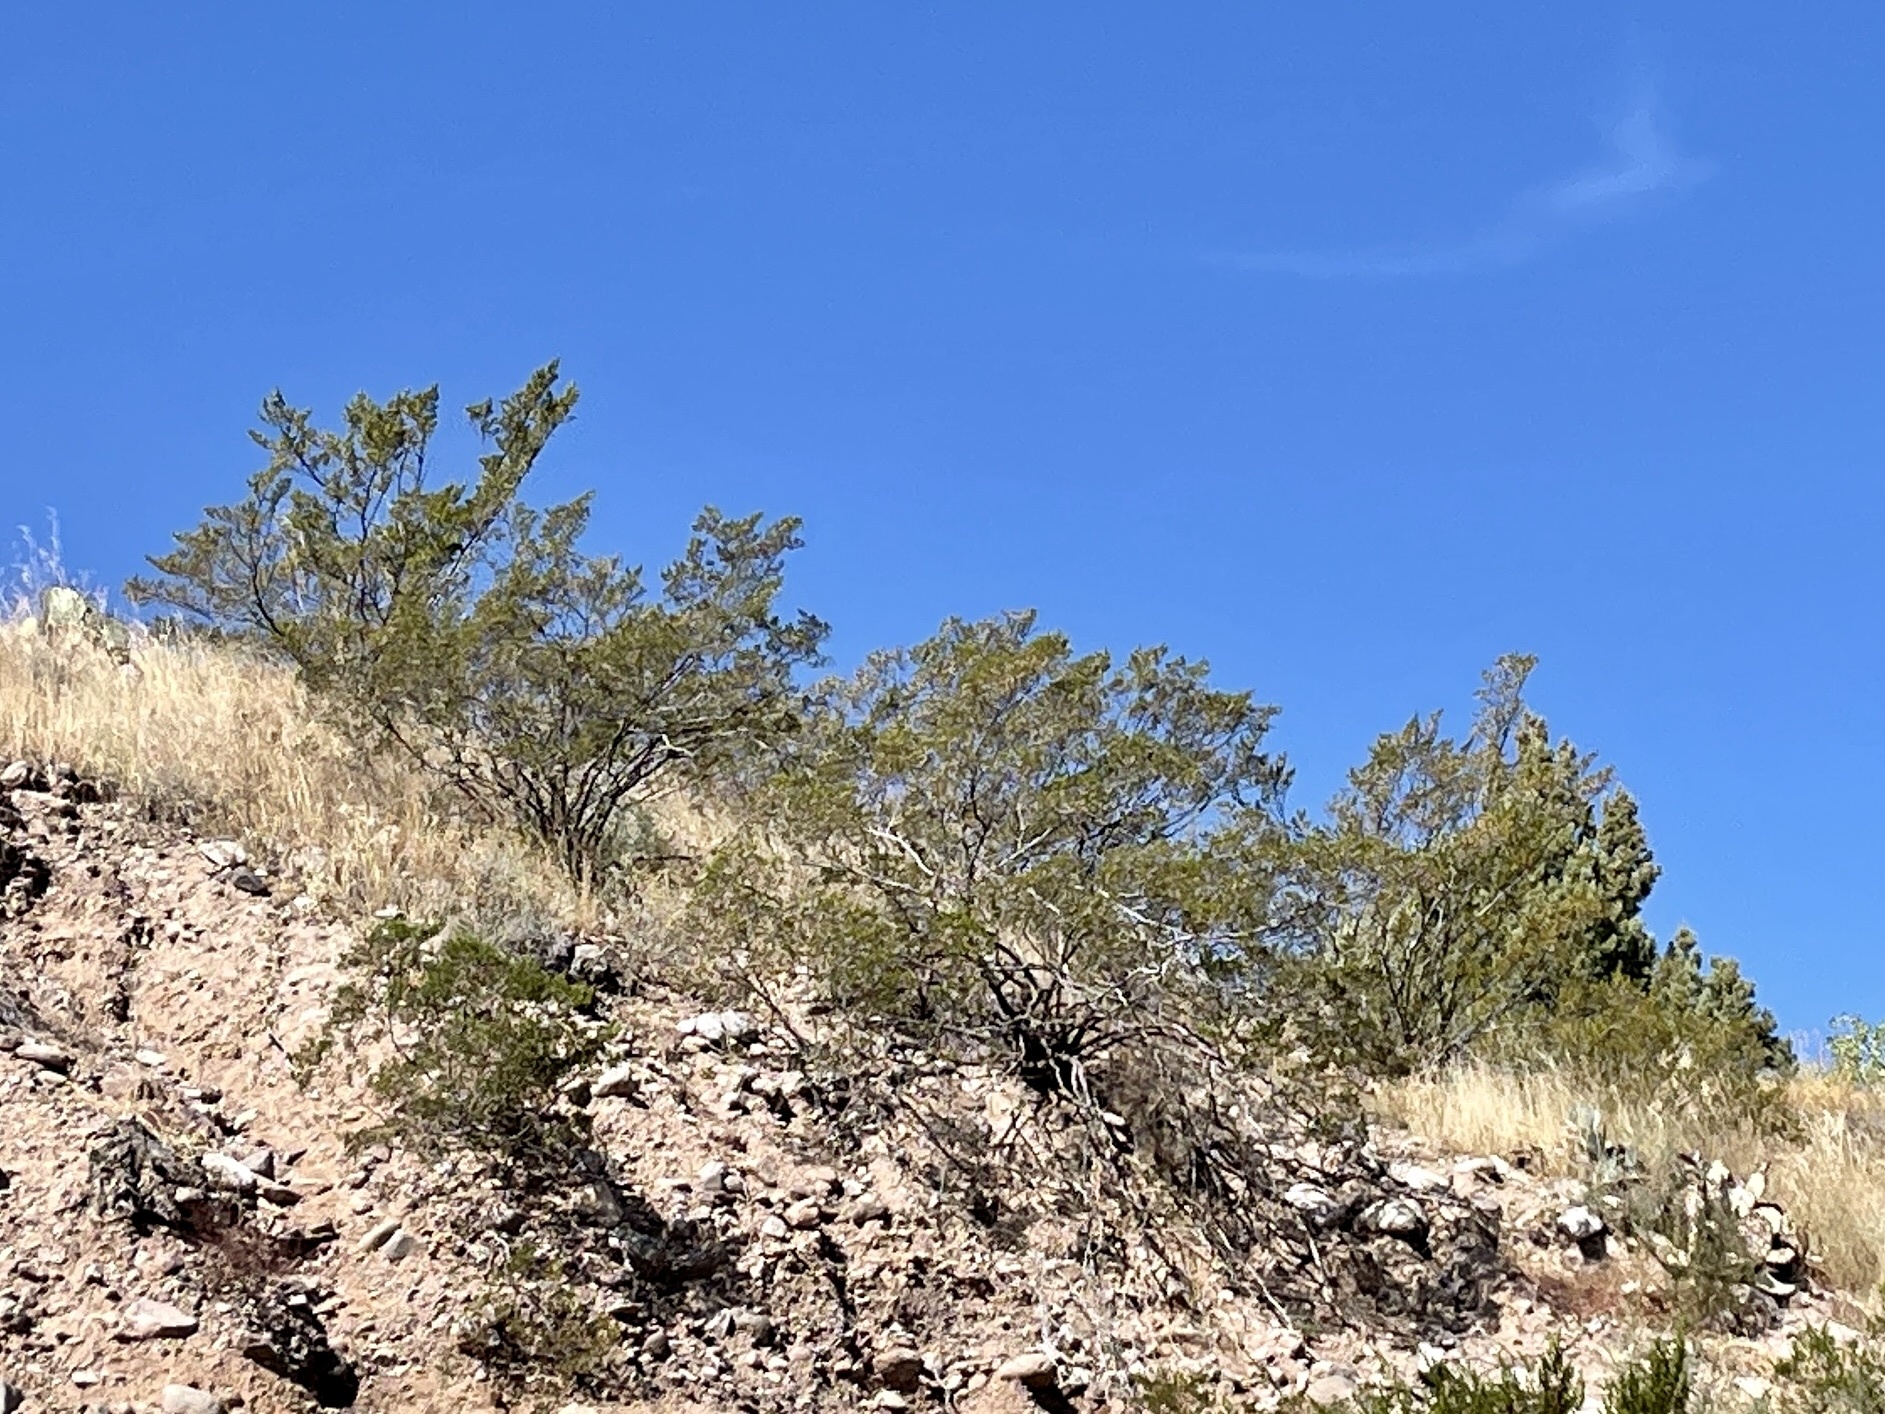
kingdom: Plantae
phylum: Tracheophyta
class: Magnoliopsida
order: Zygophyllales
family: Zygophyllaceae
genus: Larrea
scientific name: Larrea tridentata
